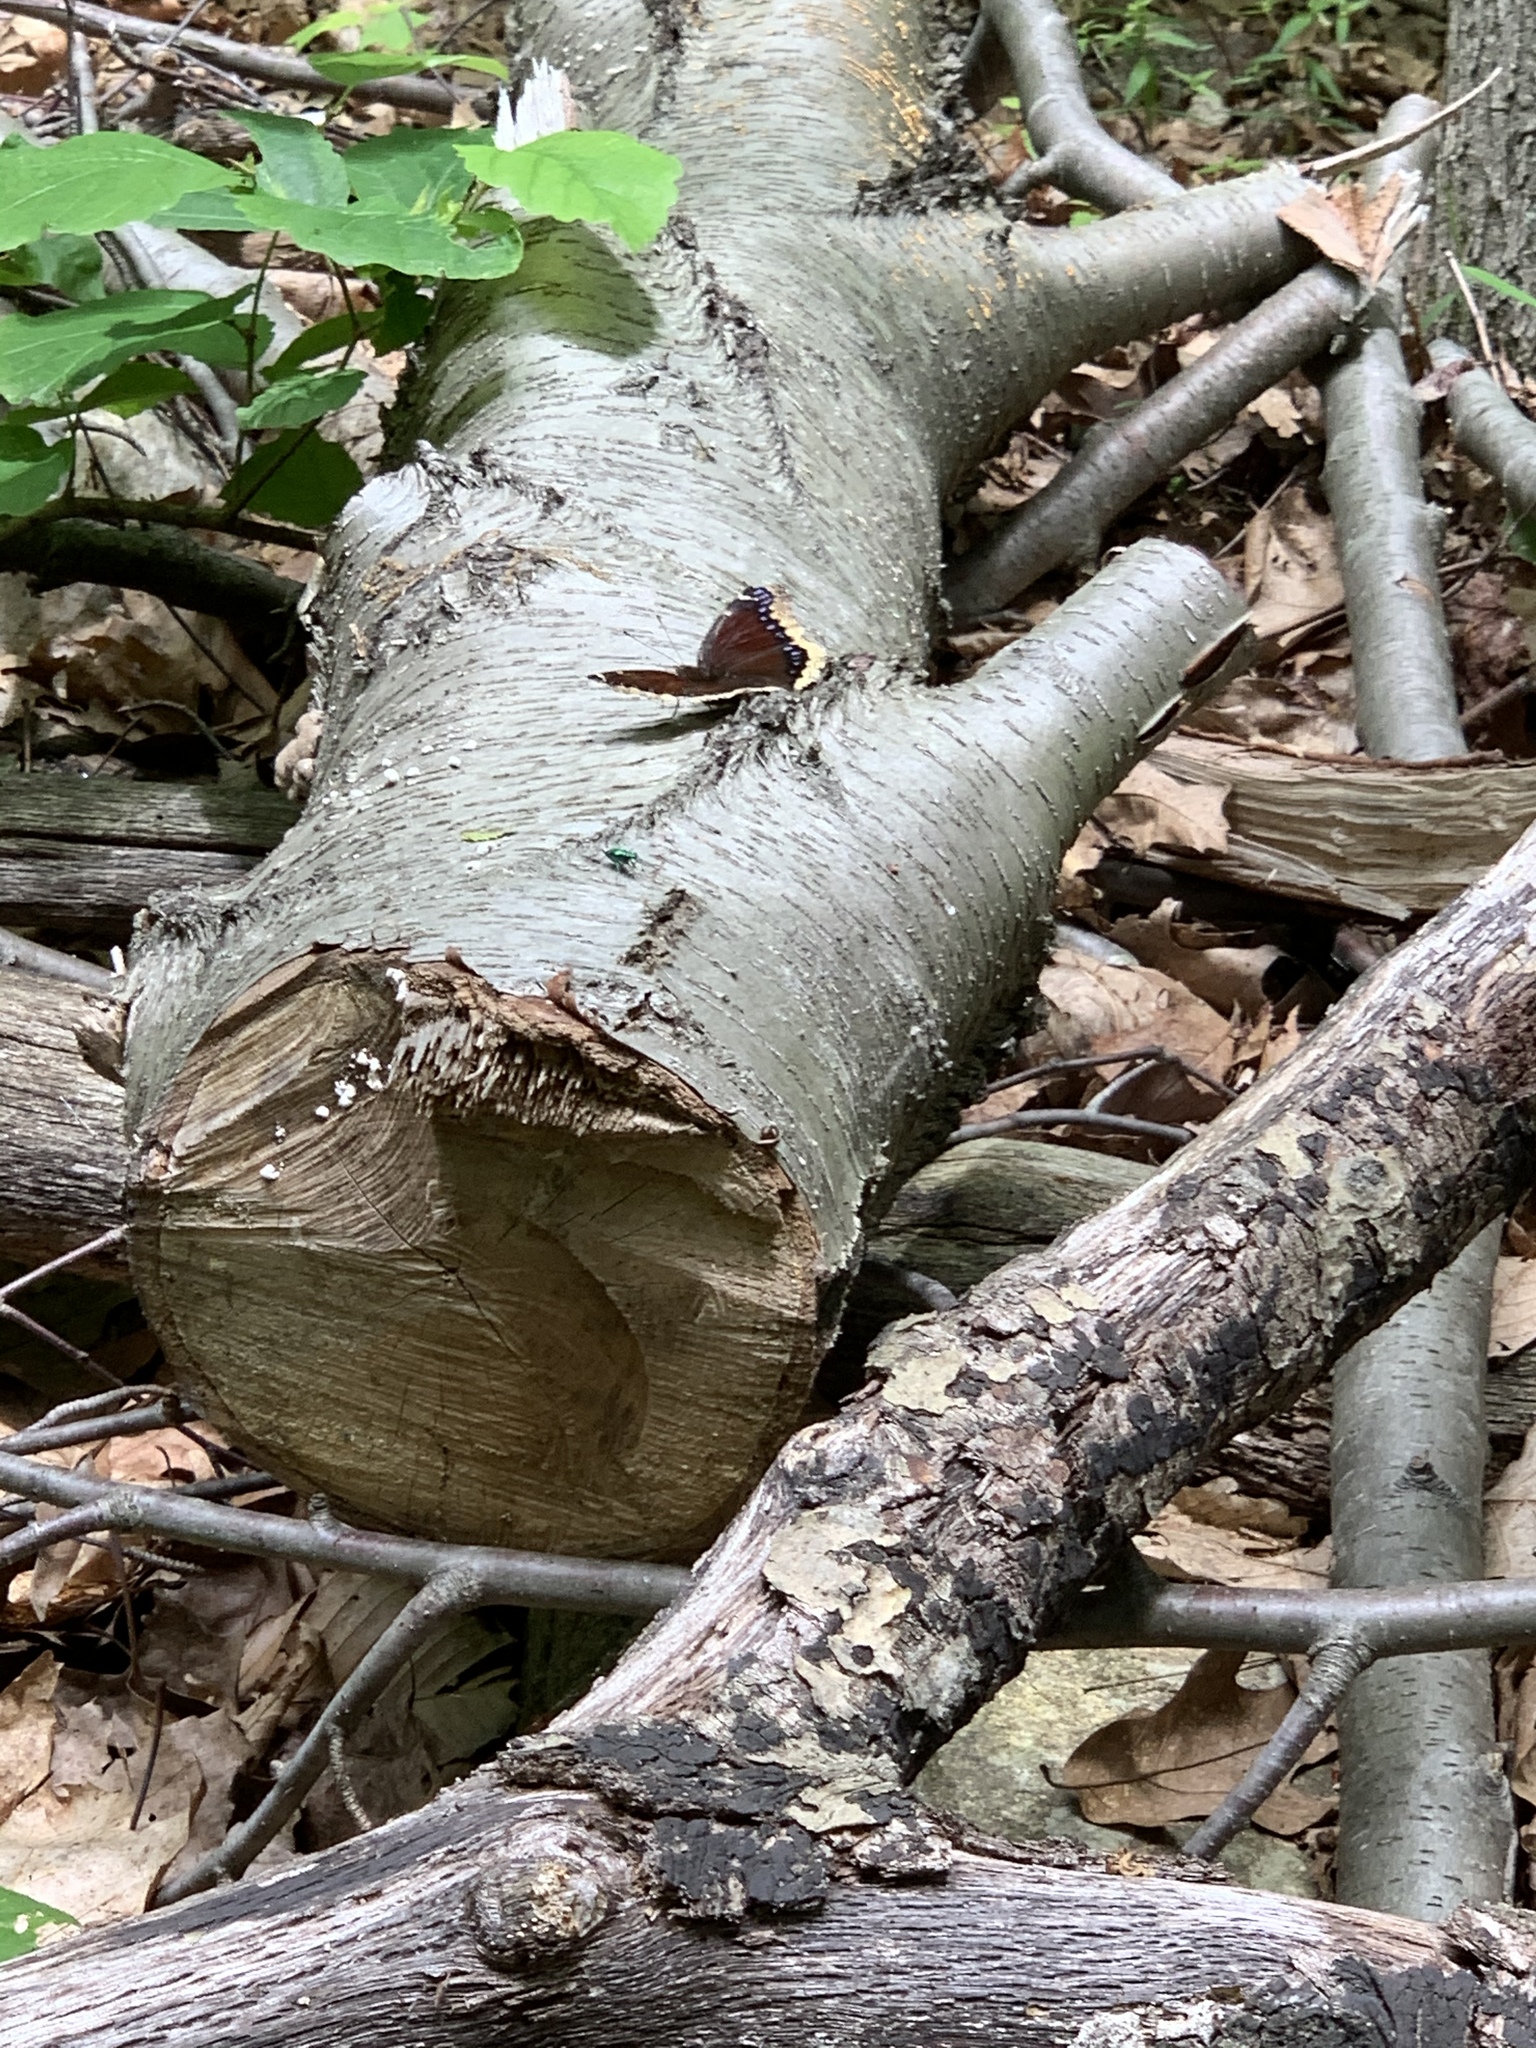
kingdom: Animalia
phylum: Arthropoda
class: Insecta
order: Lepidoptera
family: Nymphalidae
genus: Nymphalis
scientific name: Nymphalis antiopa
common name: Camberwell beauty
